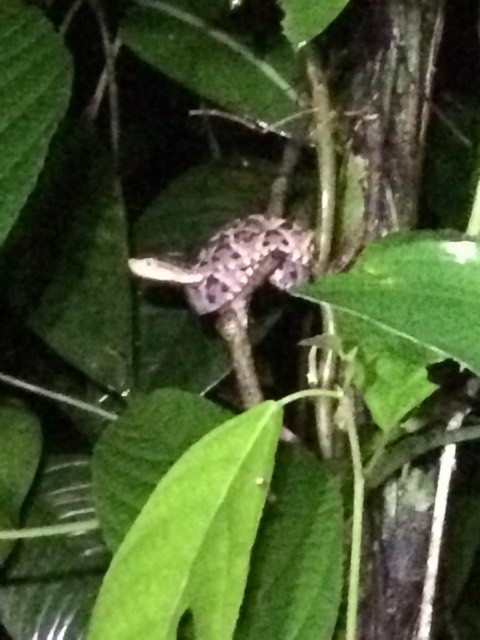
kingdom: Animalia
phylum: Chordata
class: Squamata
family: Viperidae
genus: Bothrops
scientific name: Bothrops asper
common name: Terciopelo
